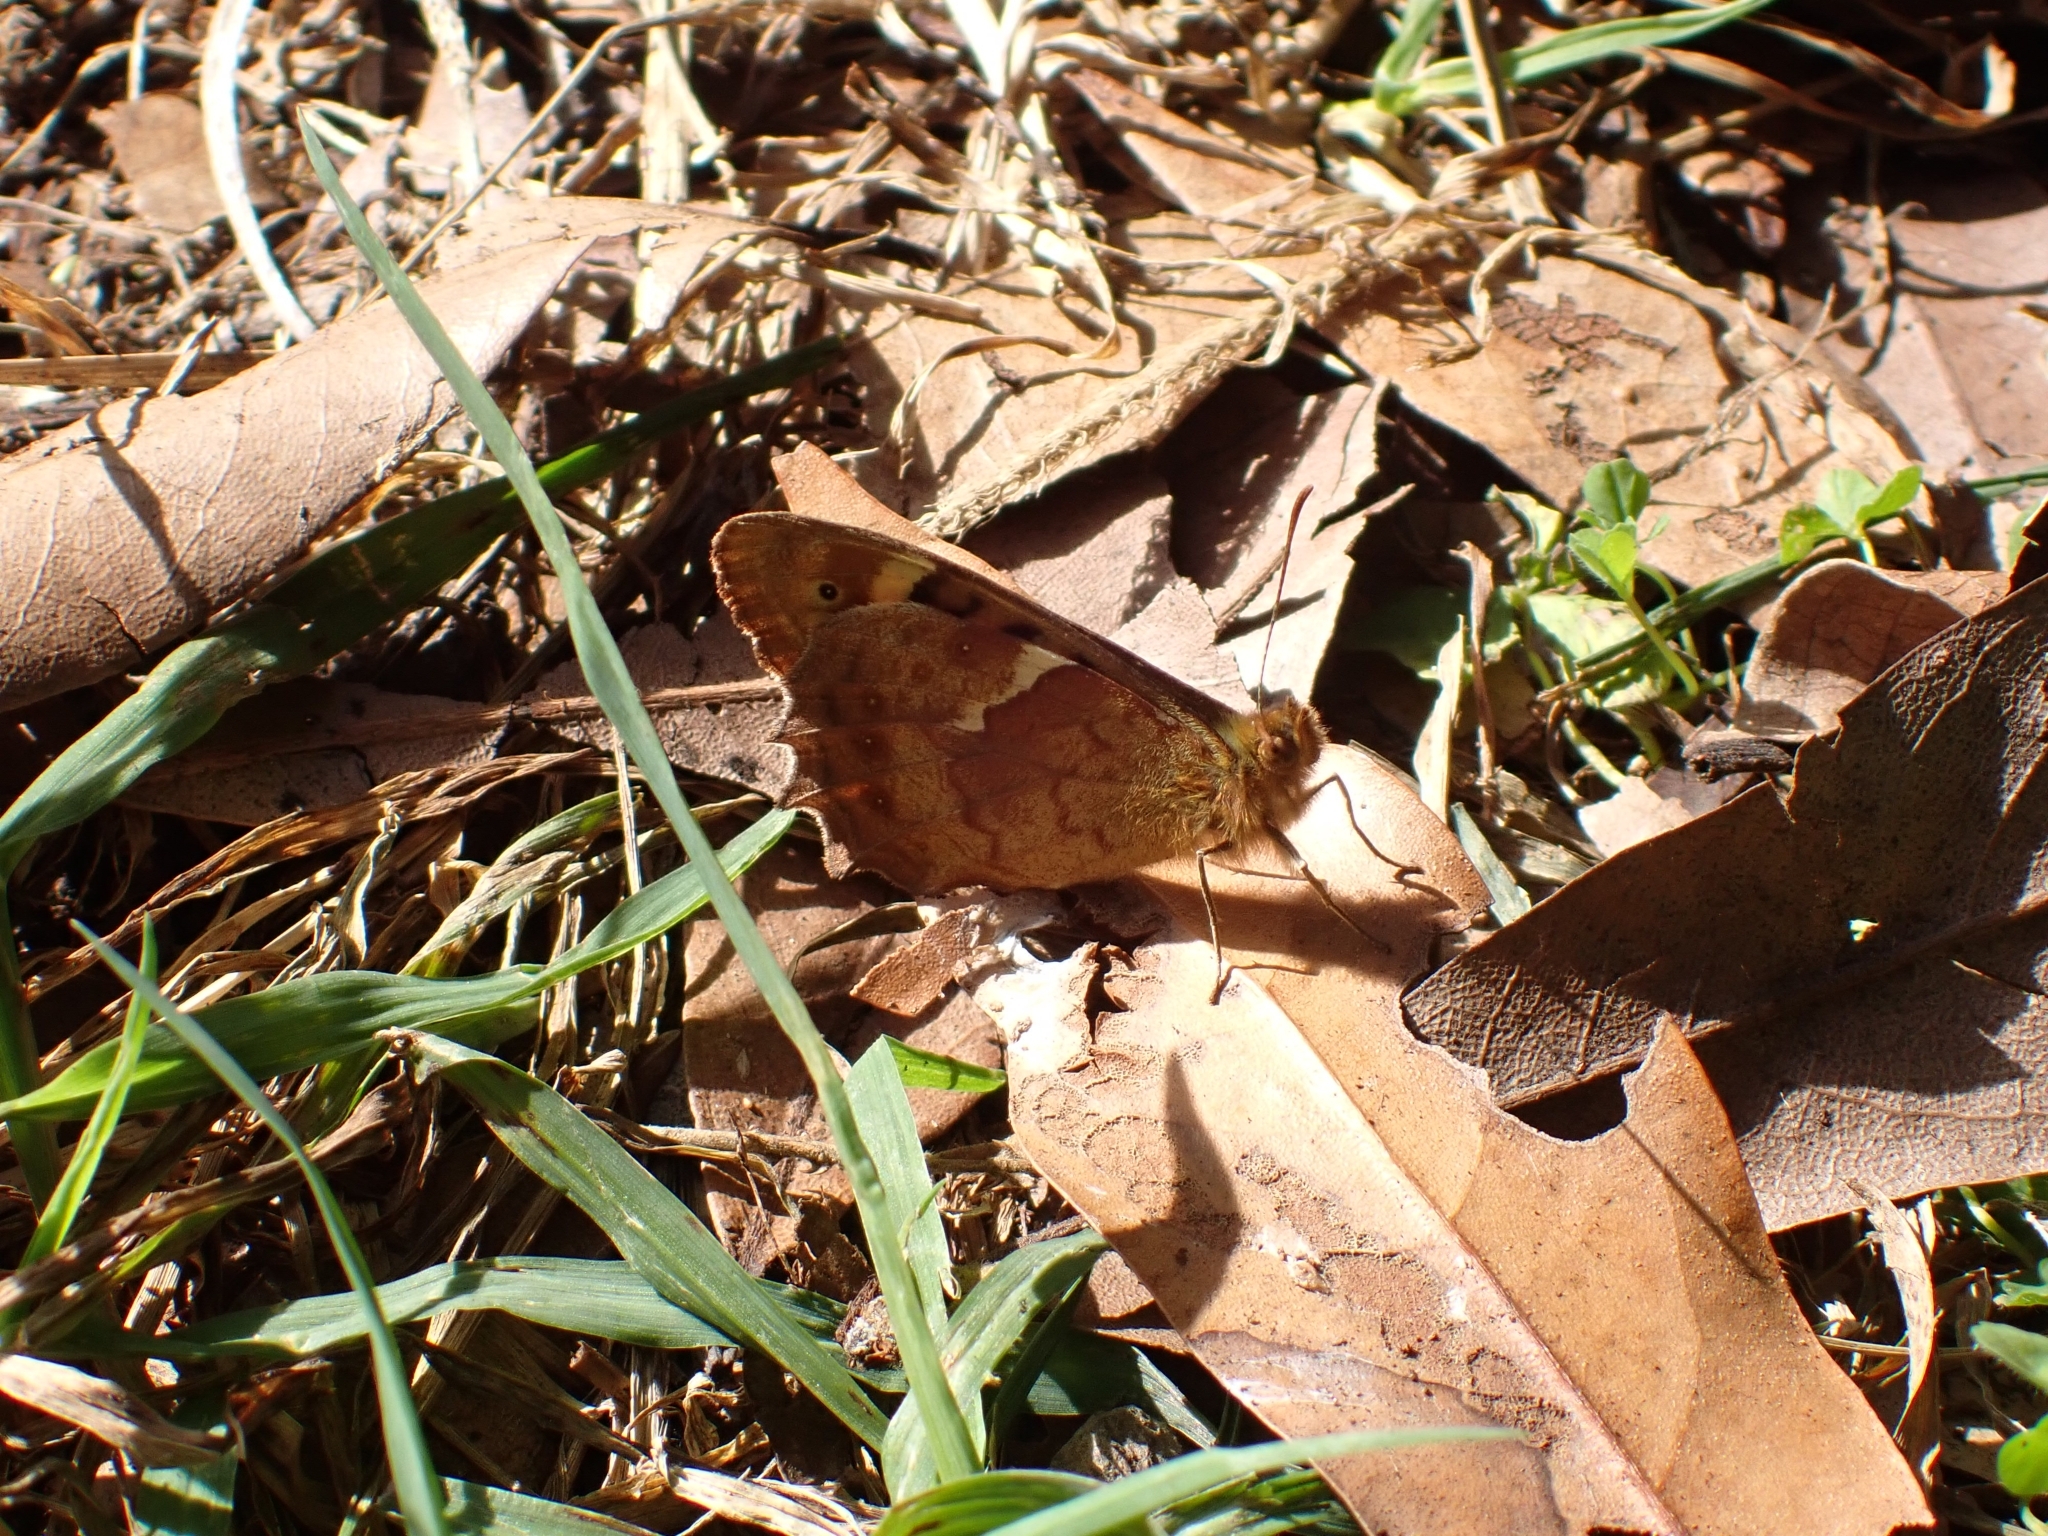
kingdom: Animalia
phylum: Arthropoda
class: Insecta
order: Lepidoptera
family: Nymphalidae
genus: Pararge
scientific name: Pararge aegeria
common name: Speckled wood
